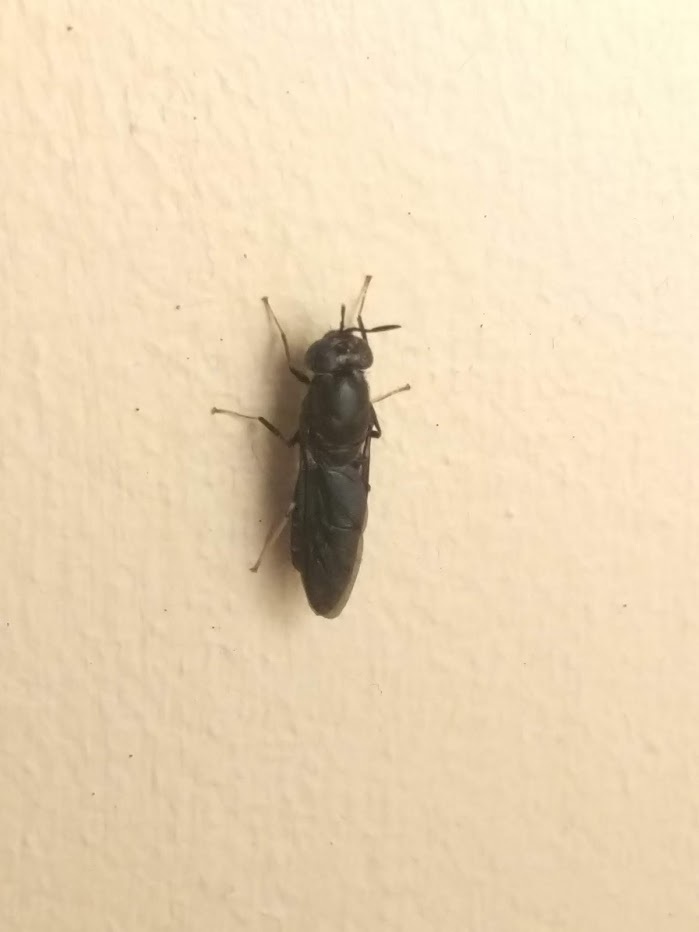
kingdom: Animalia
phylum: Arthropoda
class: Insecta
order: Diptera
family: Stratiomyidae
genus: Hermetia
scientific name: Hermetia illucens
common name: Black soldier fly
